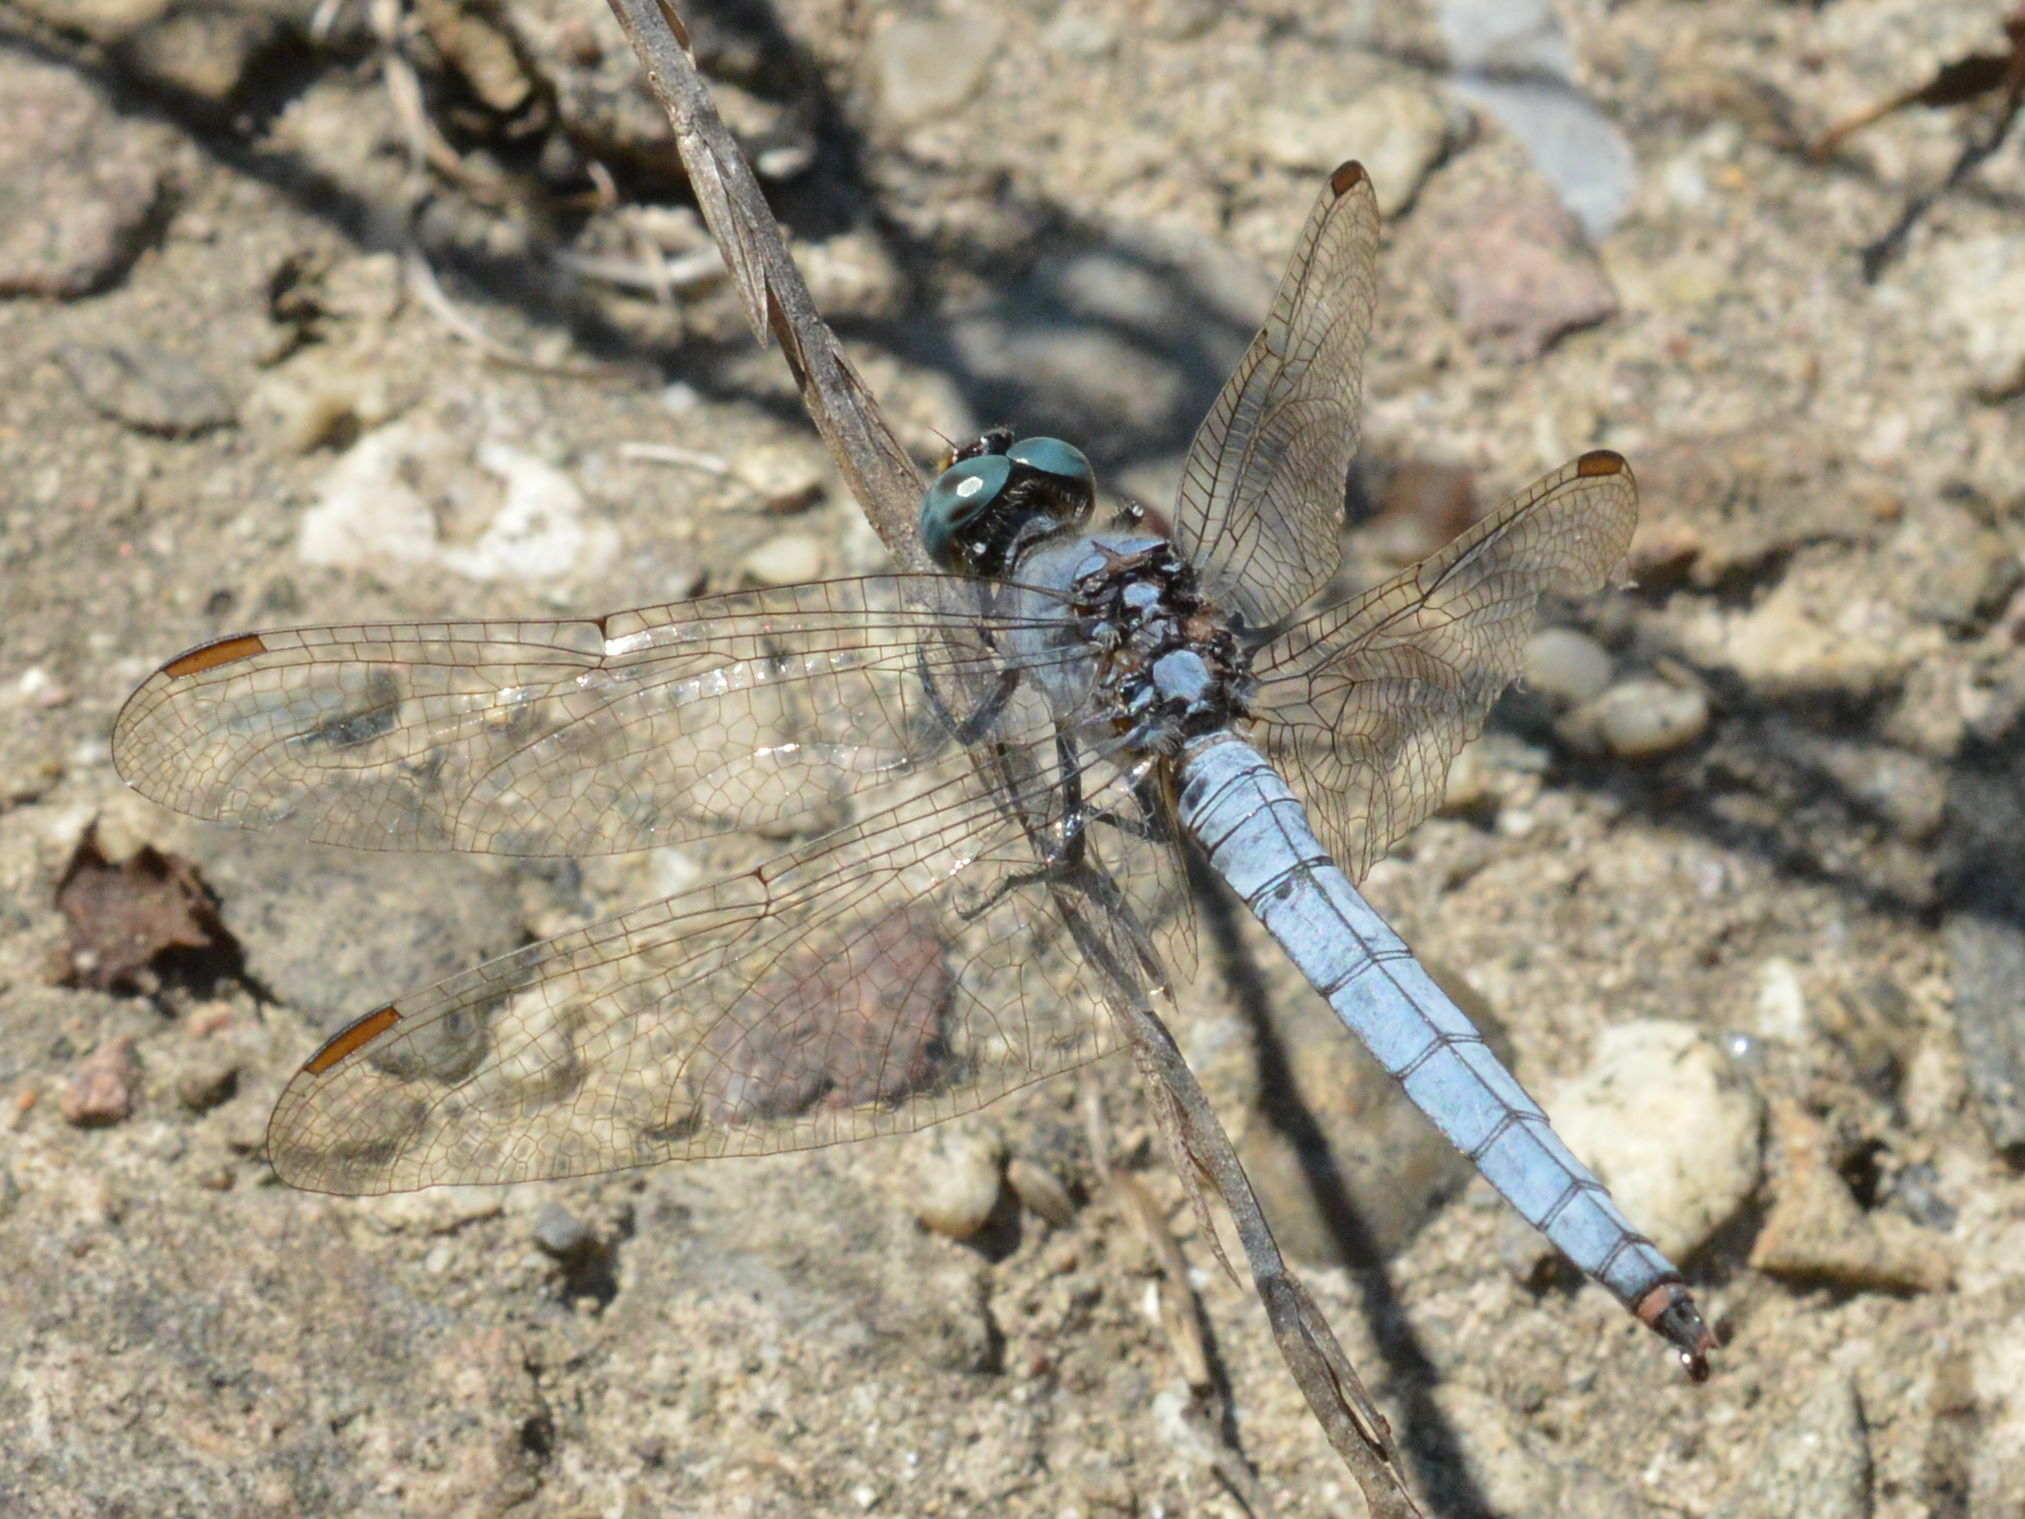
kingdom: Animalia
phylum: Arthropoda
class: Insecta
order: Odonata
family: Libellulidae
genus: Orthetrum
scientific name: Orthetrum coerulescens
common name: Keeled skimmer
